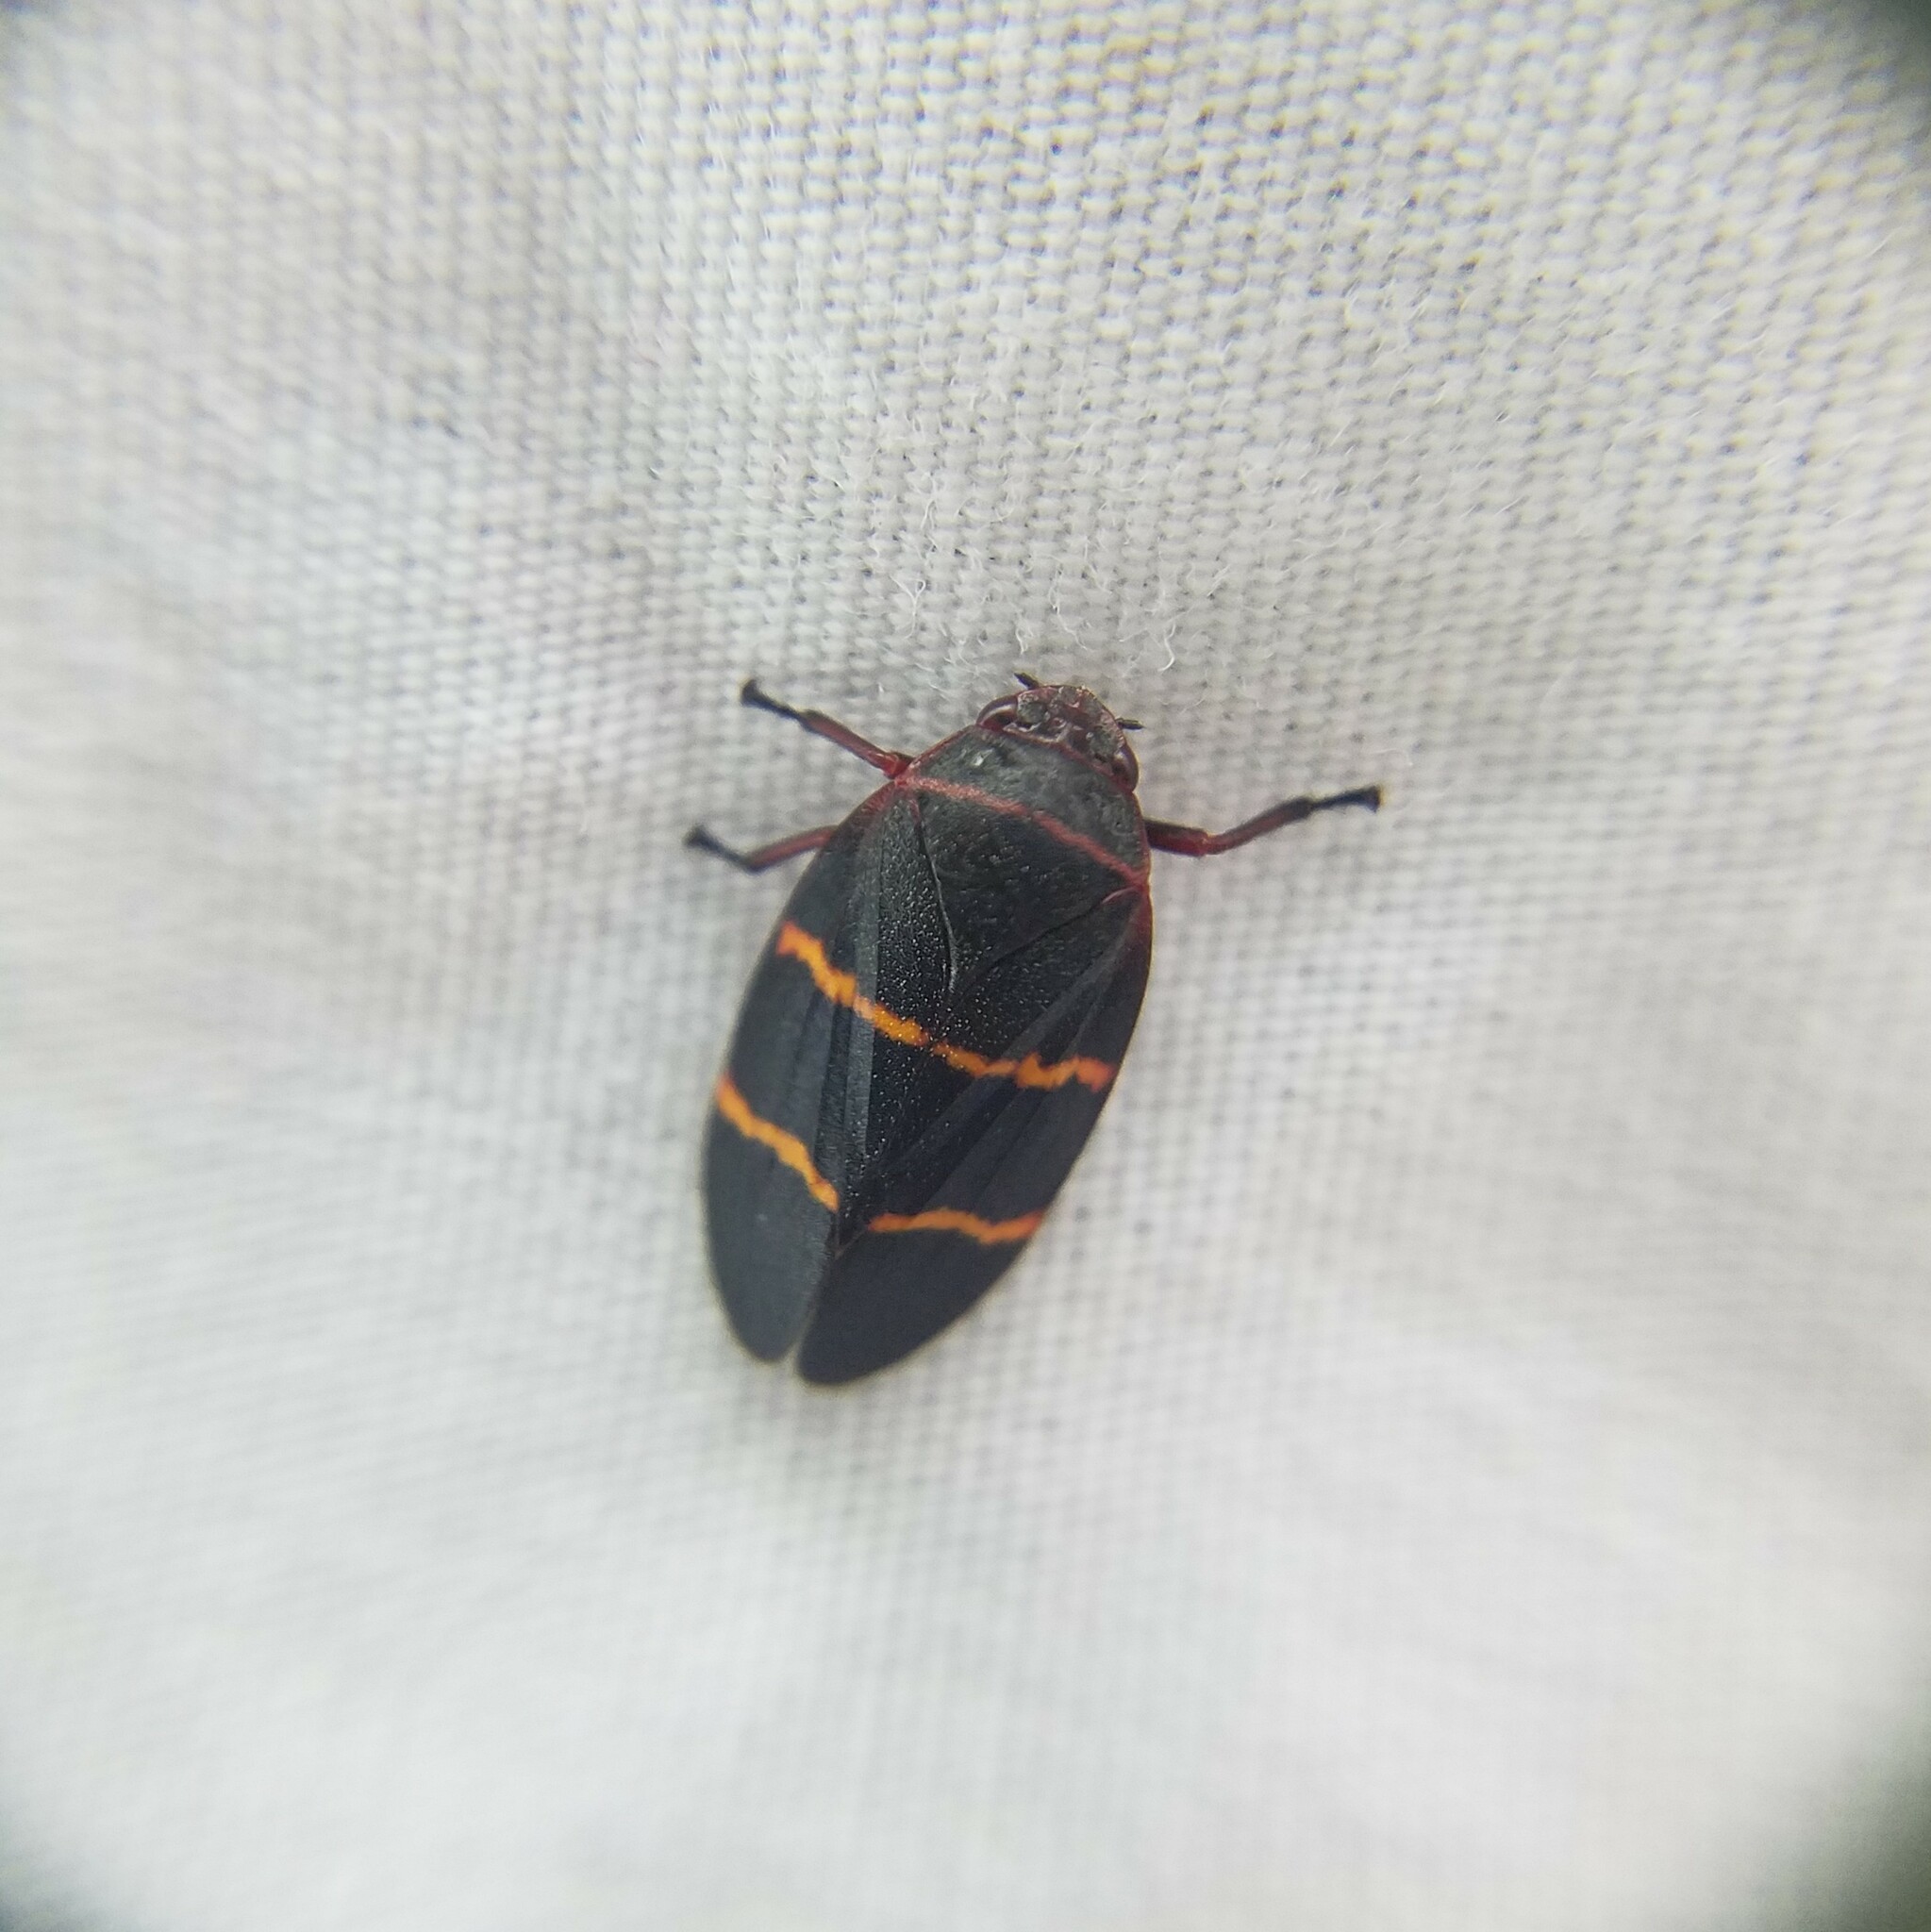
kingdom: Animalia
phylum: Arthropoda
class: Insecta
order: Hemiptera
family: Cercopidae
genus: Prosapia
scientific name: Prosapia bicincta
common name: Twolined spittlebug
